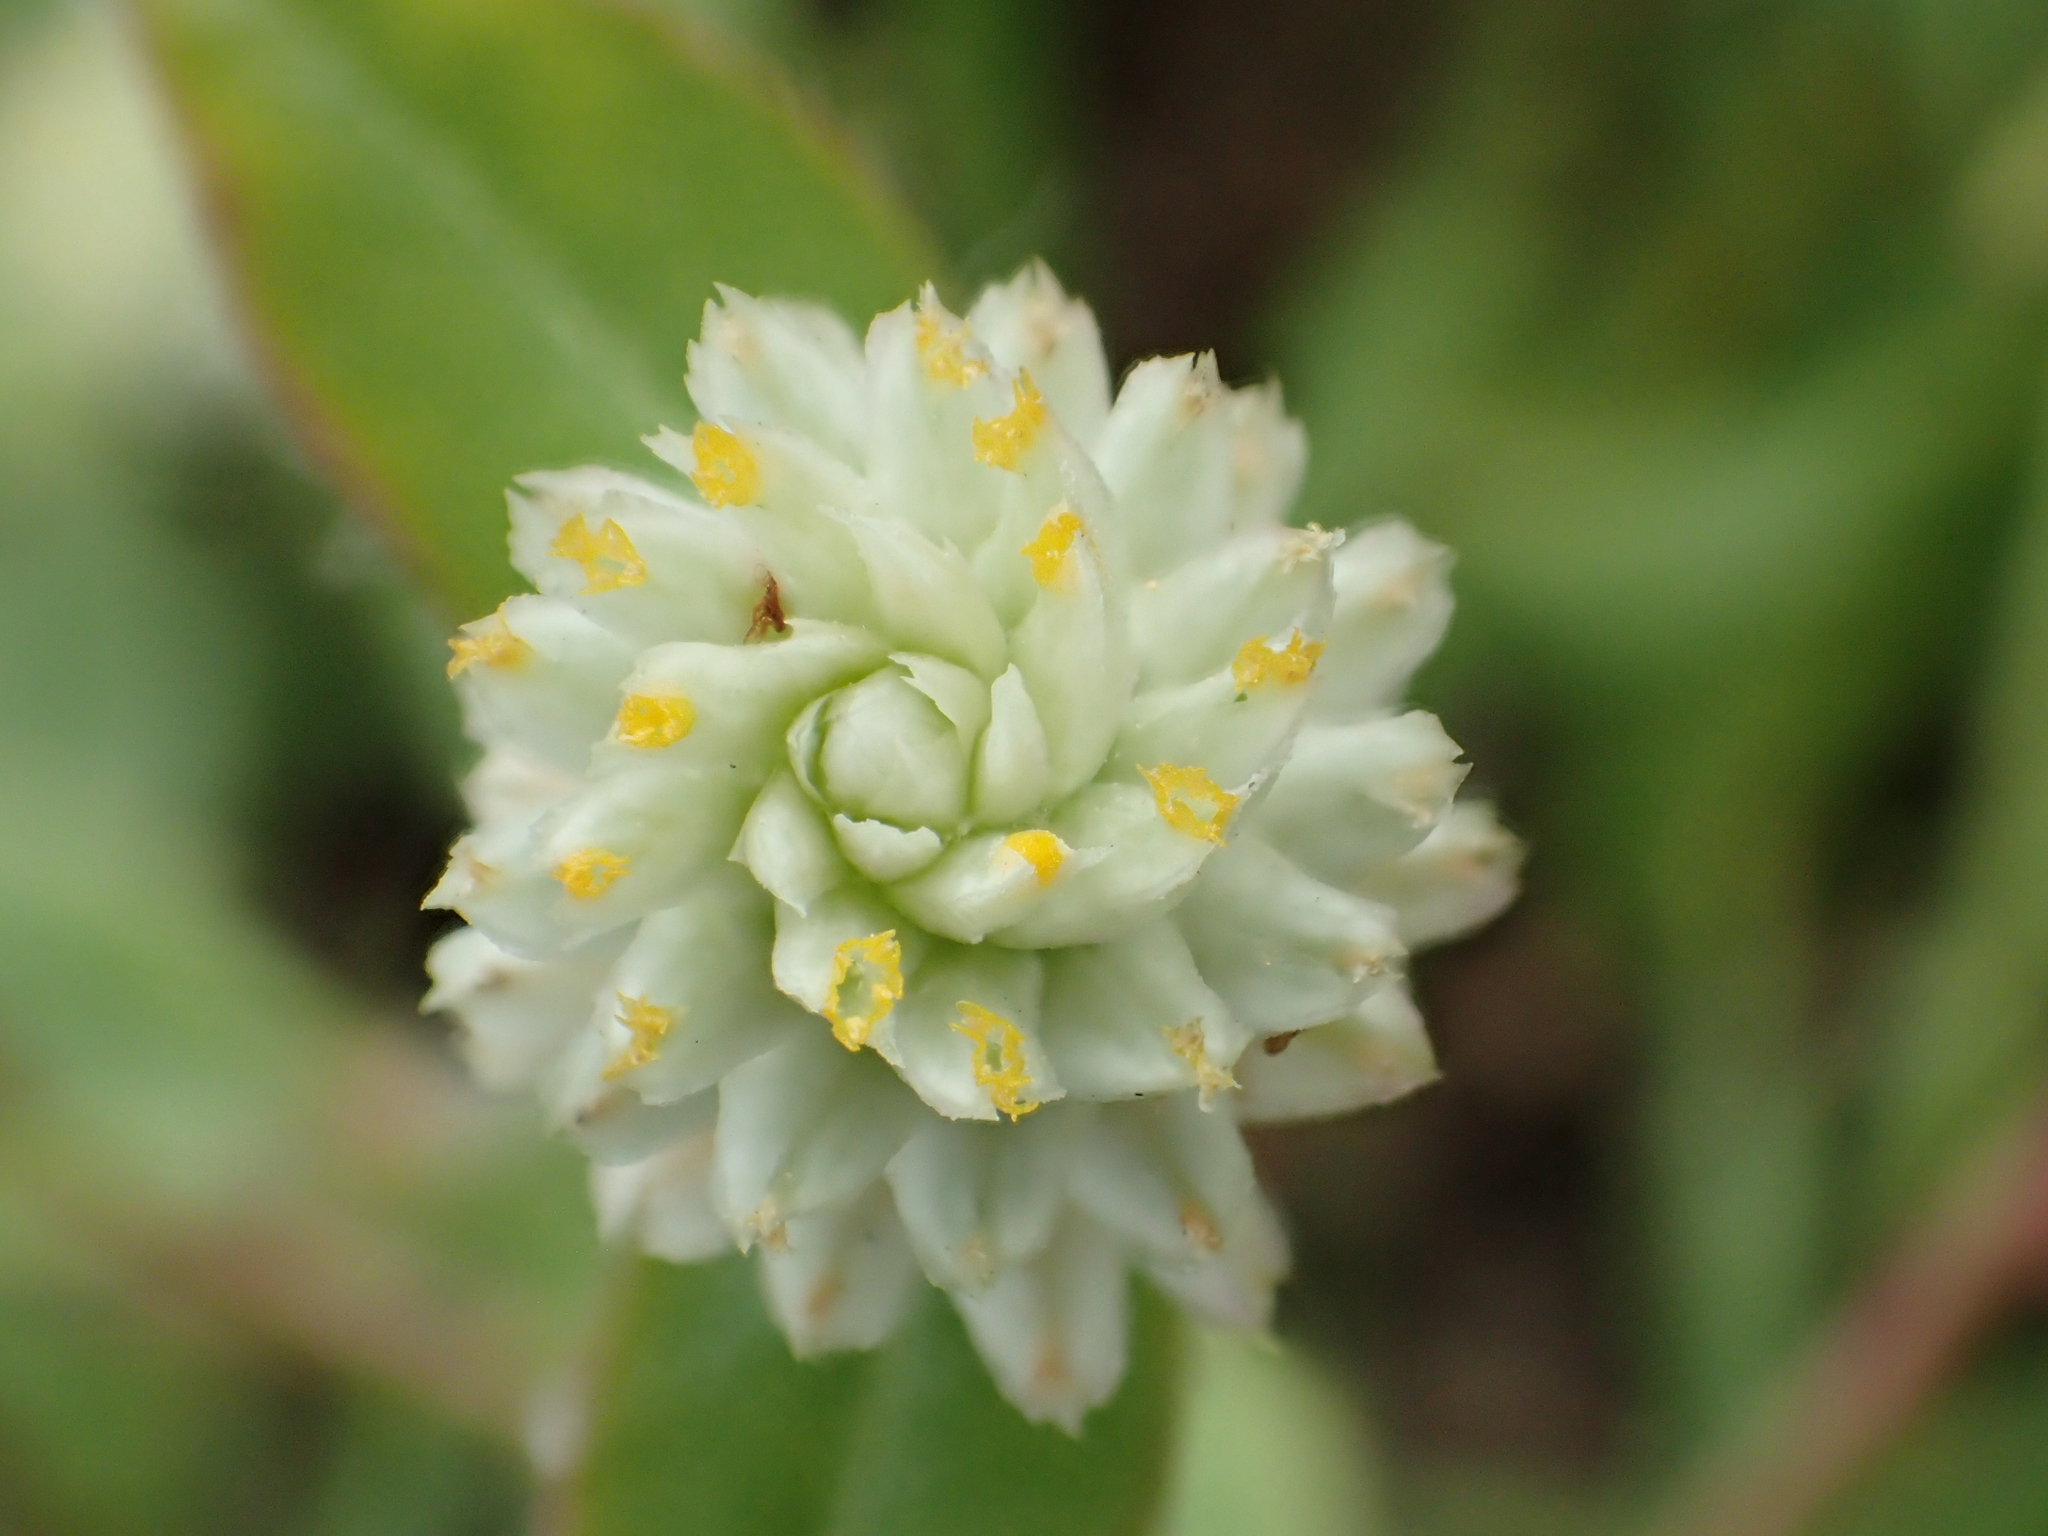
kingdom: Plantae
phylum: Tracheophyta
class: Magnoliopsida
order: Caryophyllales
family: Amaranthaceae
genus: Gomphrena
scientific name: Gomphrena celosioides
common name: Gomphrena-weed
